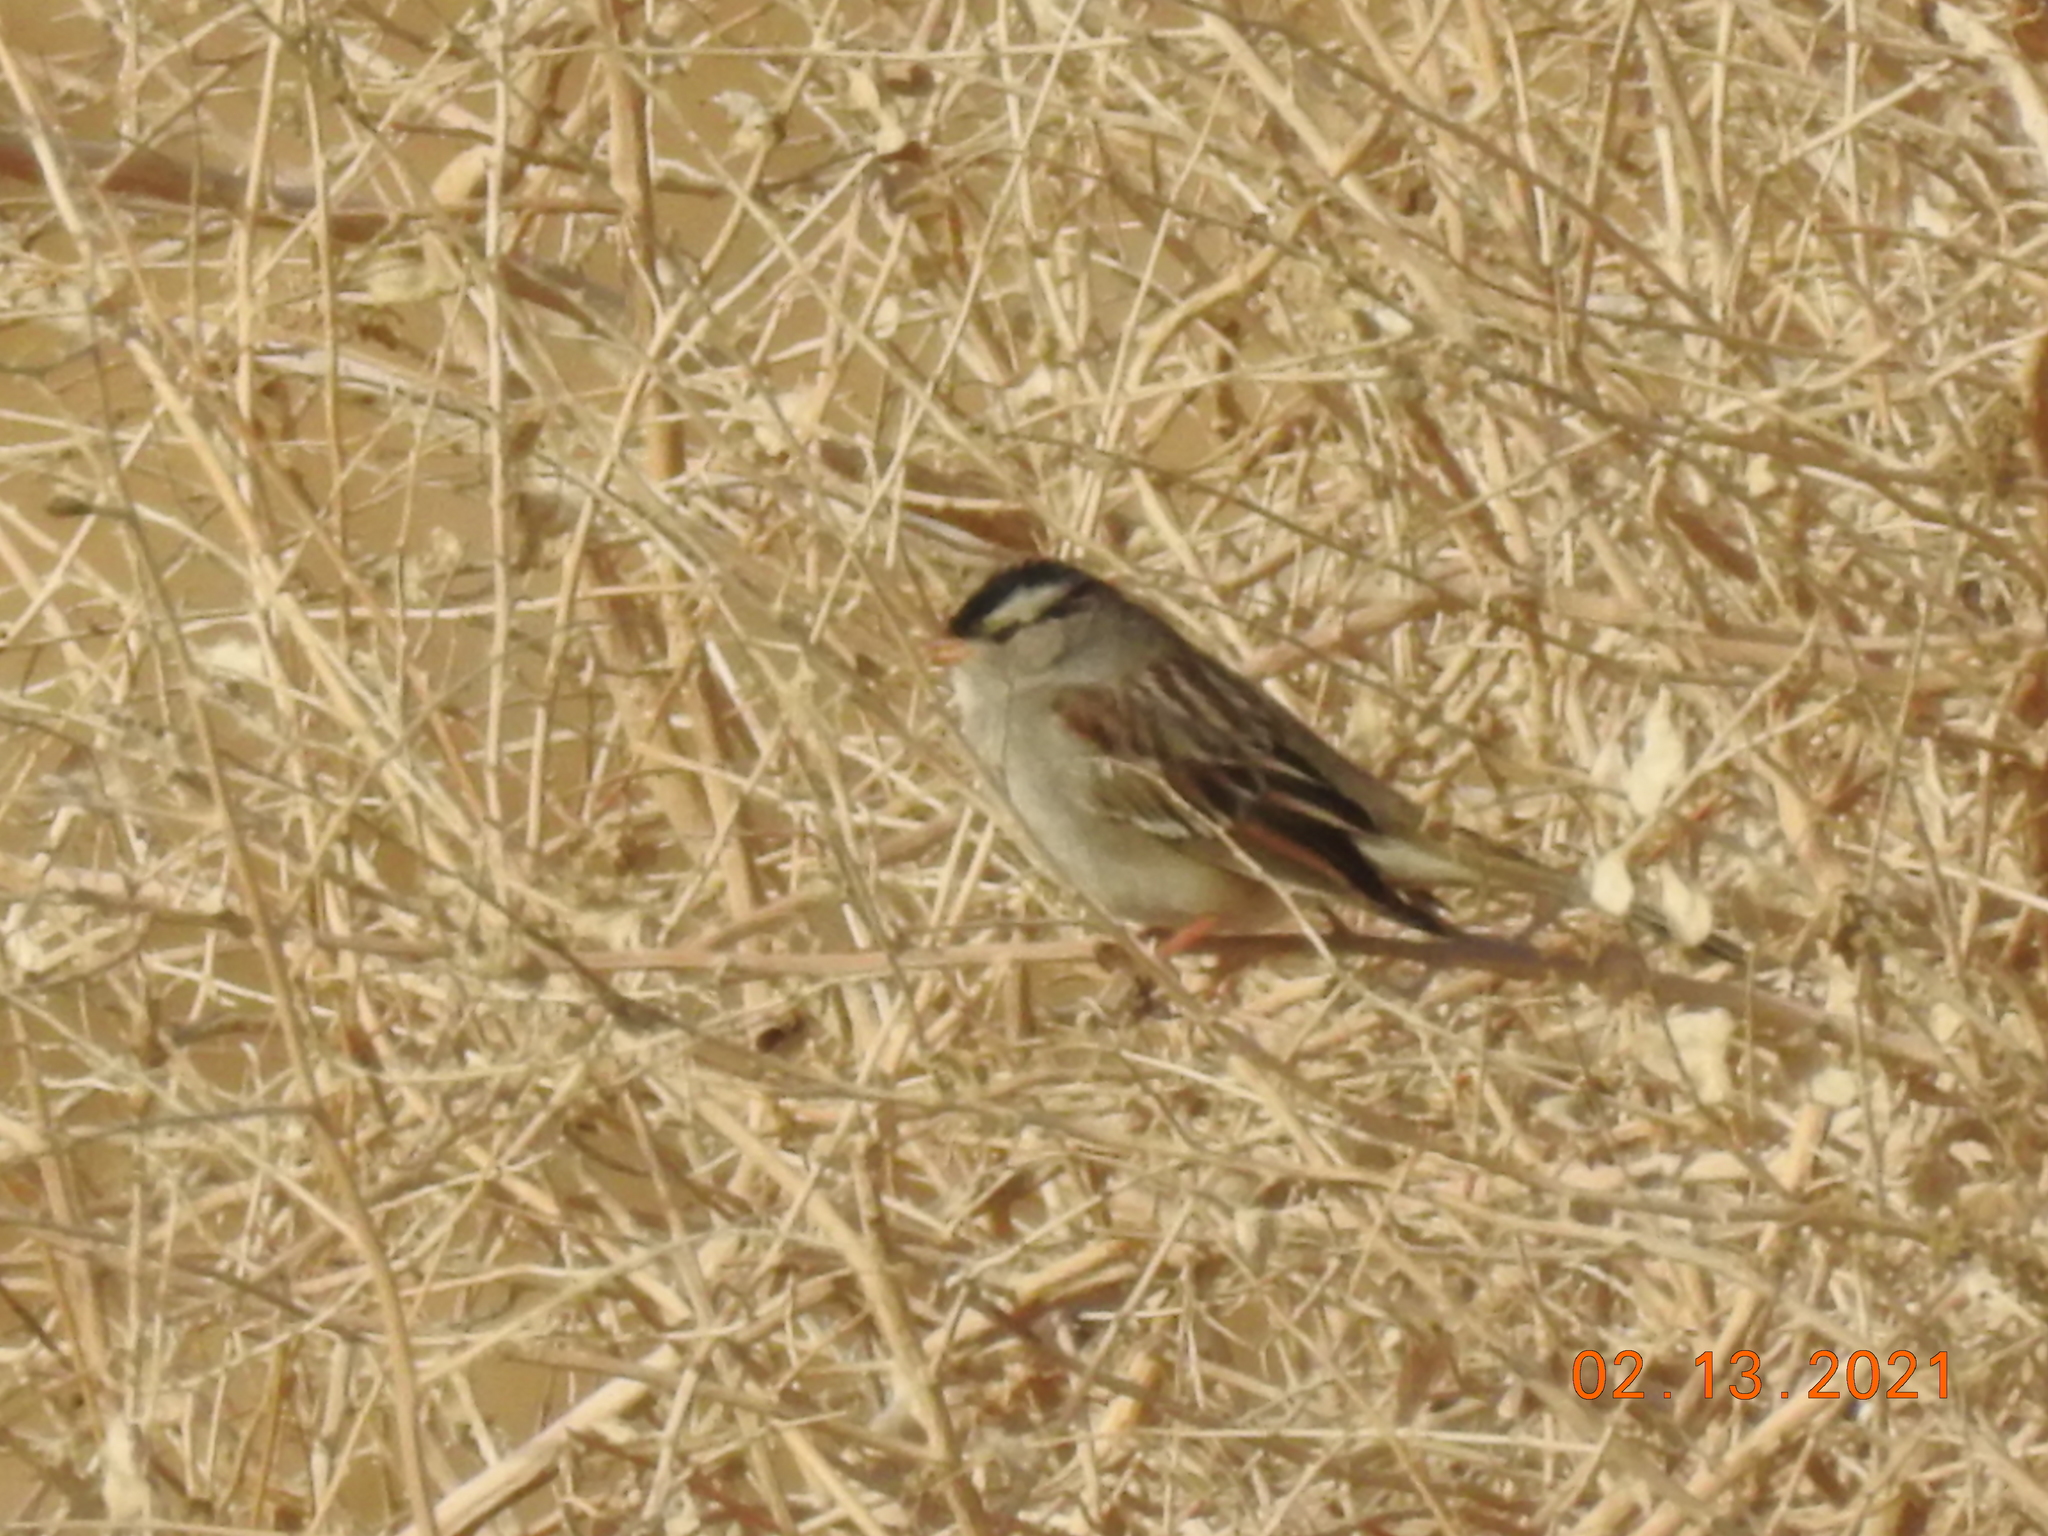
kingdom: Animalia
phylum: Chordata
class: Aves
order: Passeriformes
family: Passerellidae
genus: Zonotrichia
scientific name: Zonotrichia leucophrys
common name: White-crowned sparrow
